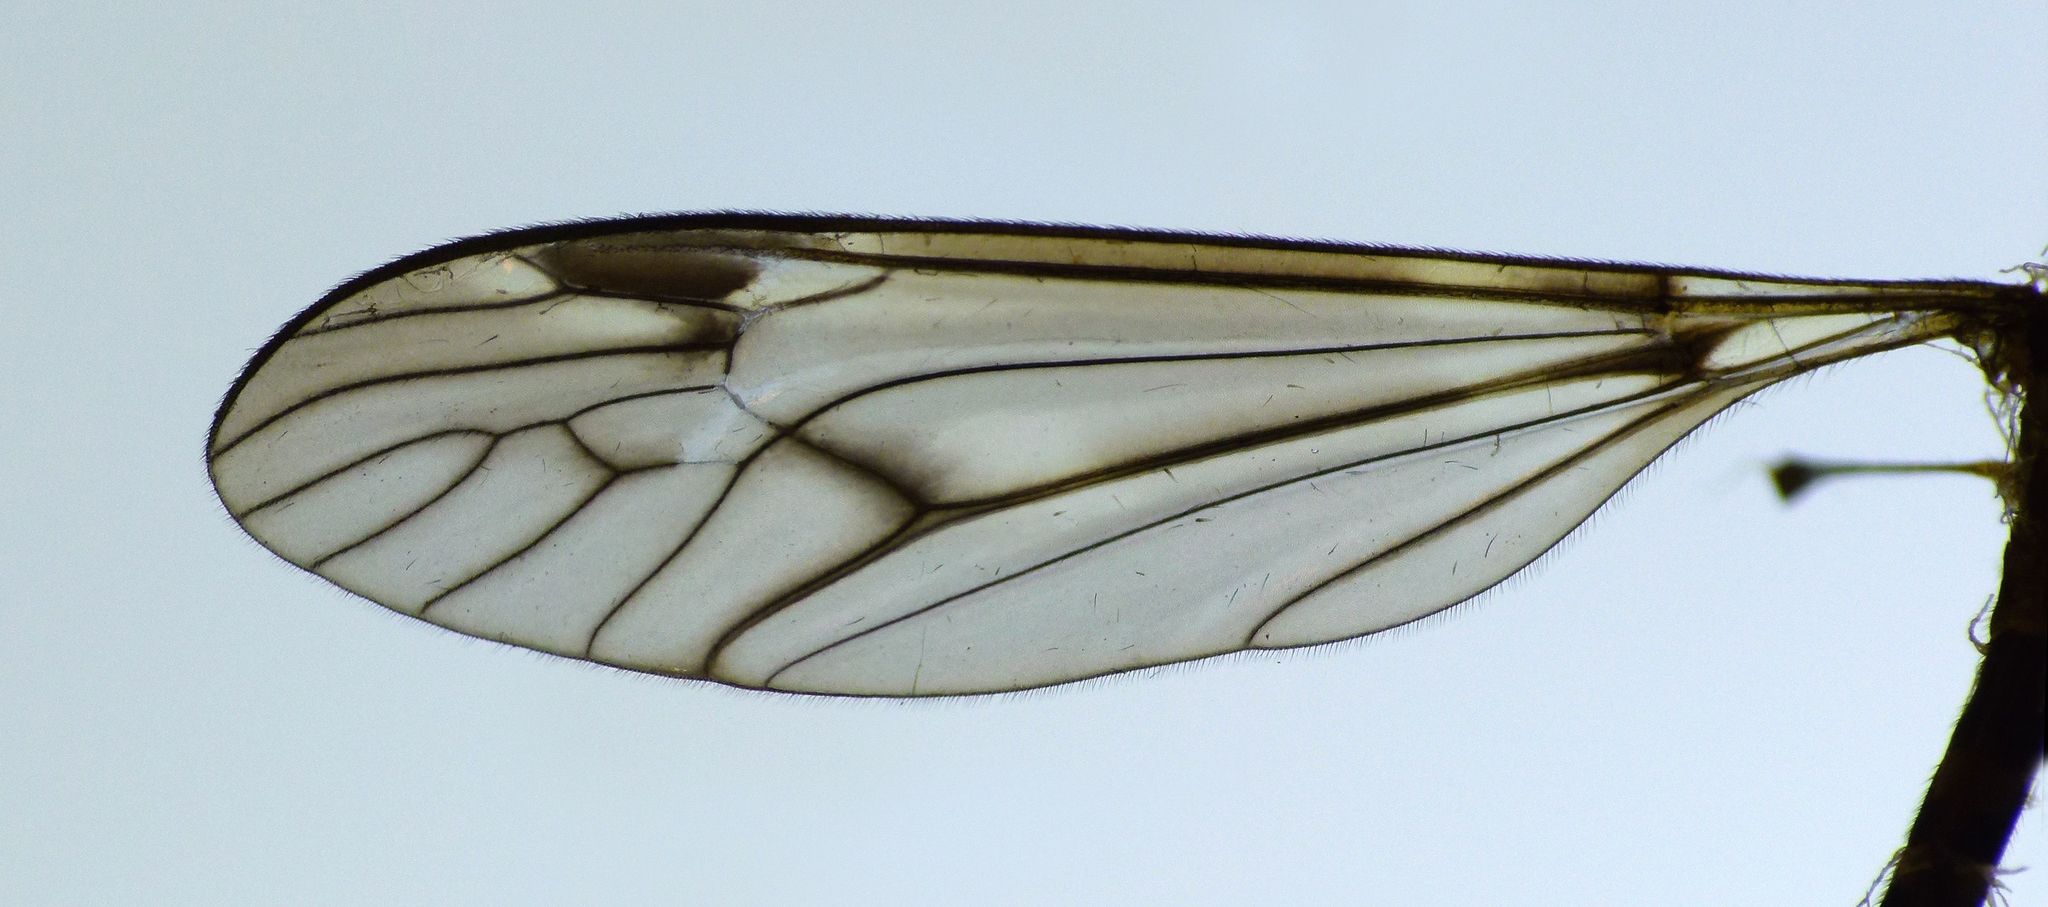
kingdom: Animalia
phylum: Arthropoda
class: Insecta
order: Diptera
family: Tipulidae
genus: Leptotarsus
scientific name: Leptotarsus cubitalis
